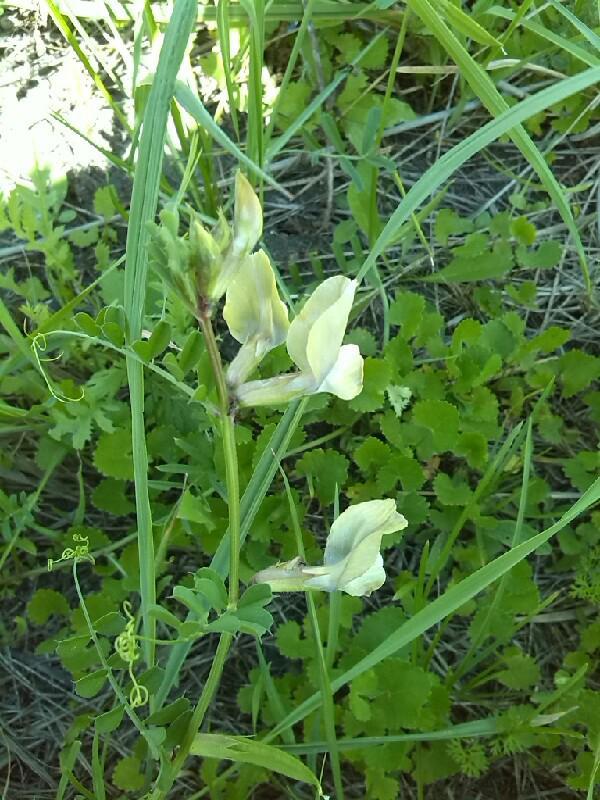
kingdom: Plantae
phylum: Tracheophyta
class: Magnoliopsida
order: Fabales
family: Fabaceae
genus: Vicia
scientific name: Vicia grandiflora
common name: Large yellow vetch
